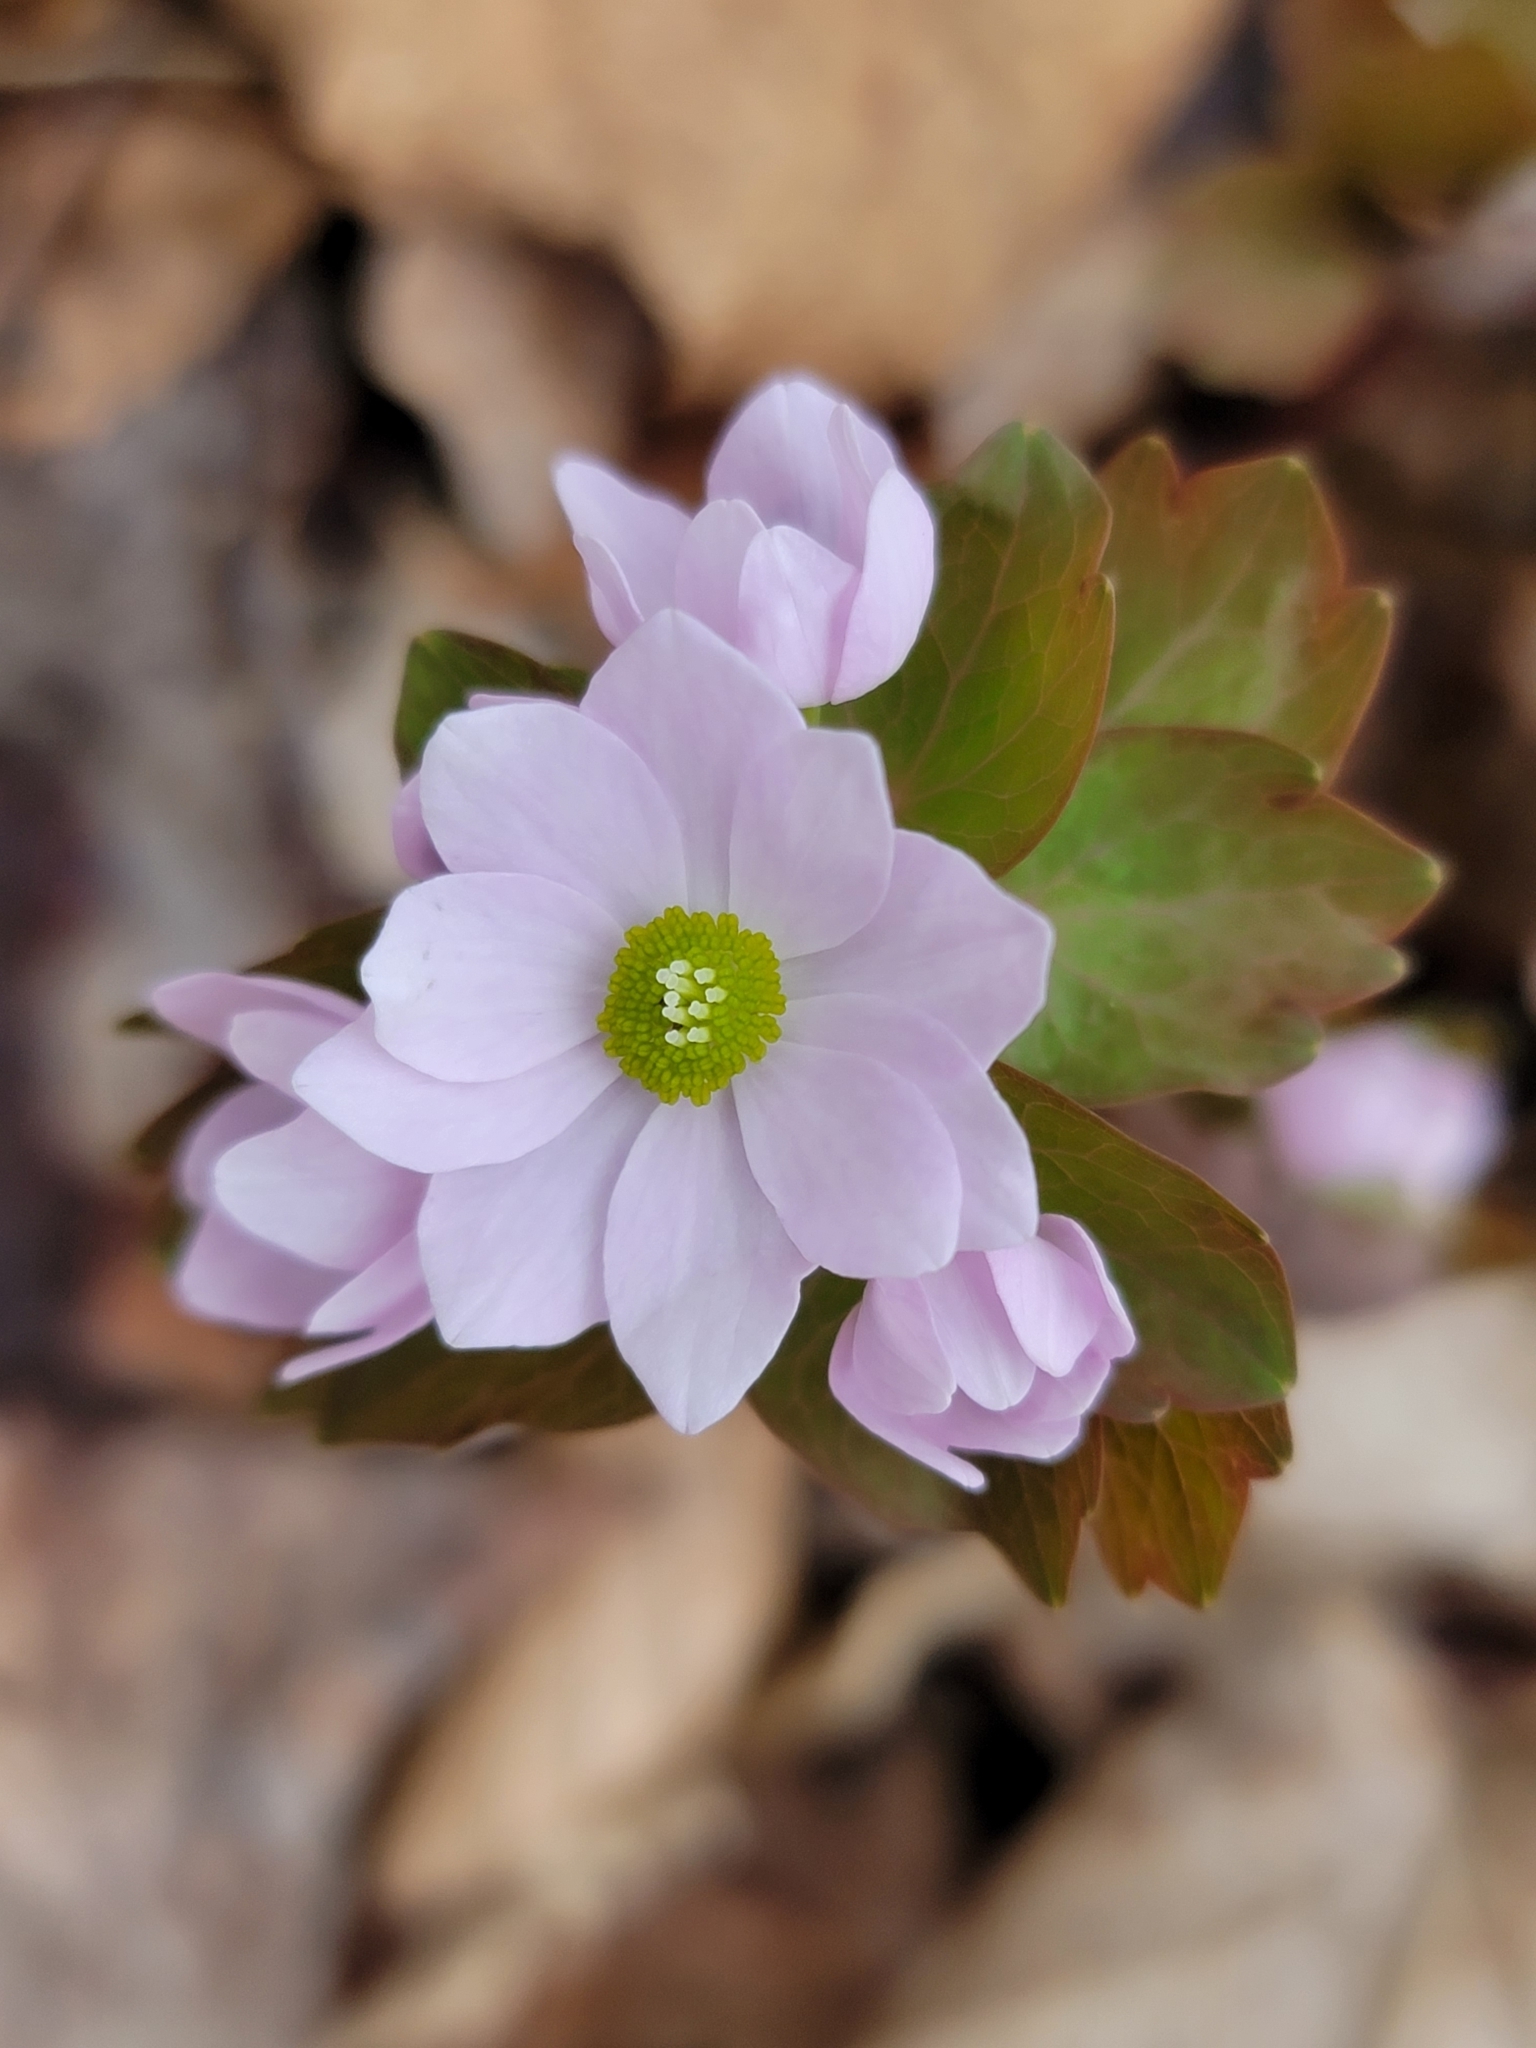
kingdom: Plantae
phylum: Tracheophyta
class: Magnoliopsida
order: Ranunculales
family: Ranunculaceae
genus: Thalictrum
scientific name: Thalictrum thalictroides
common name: Rue-anemone
